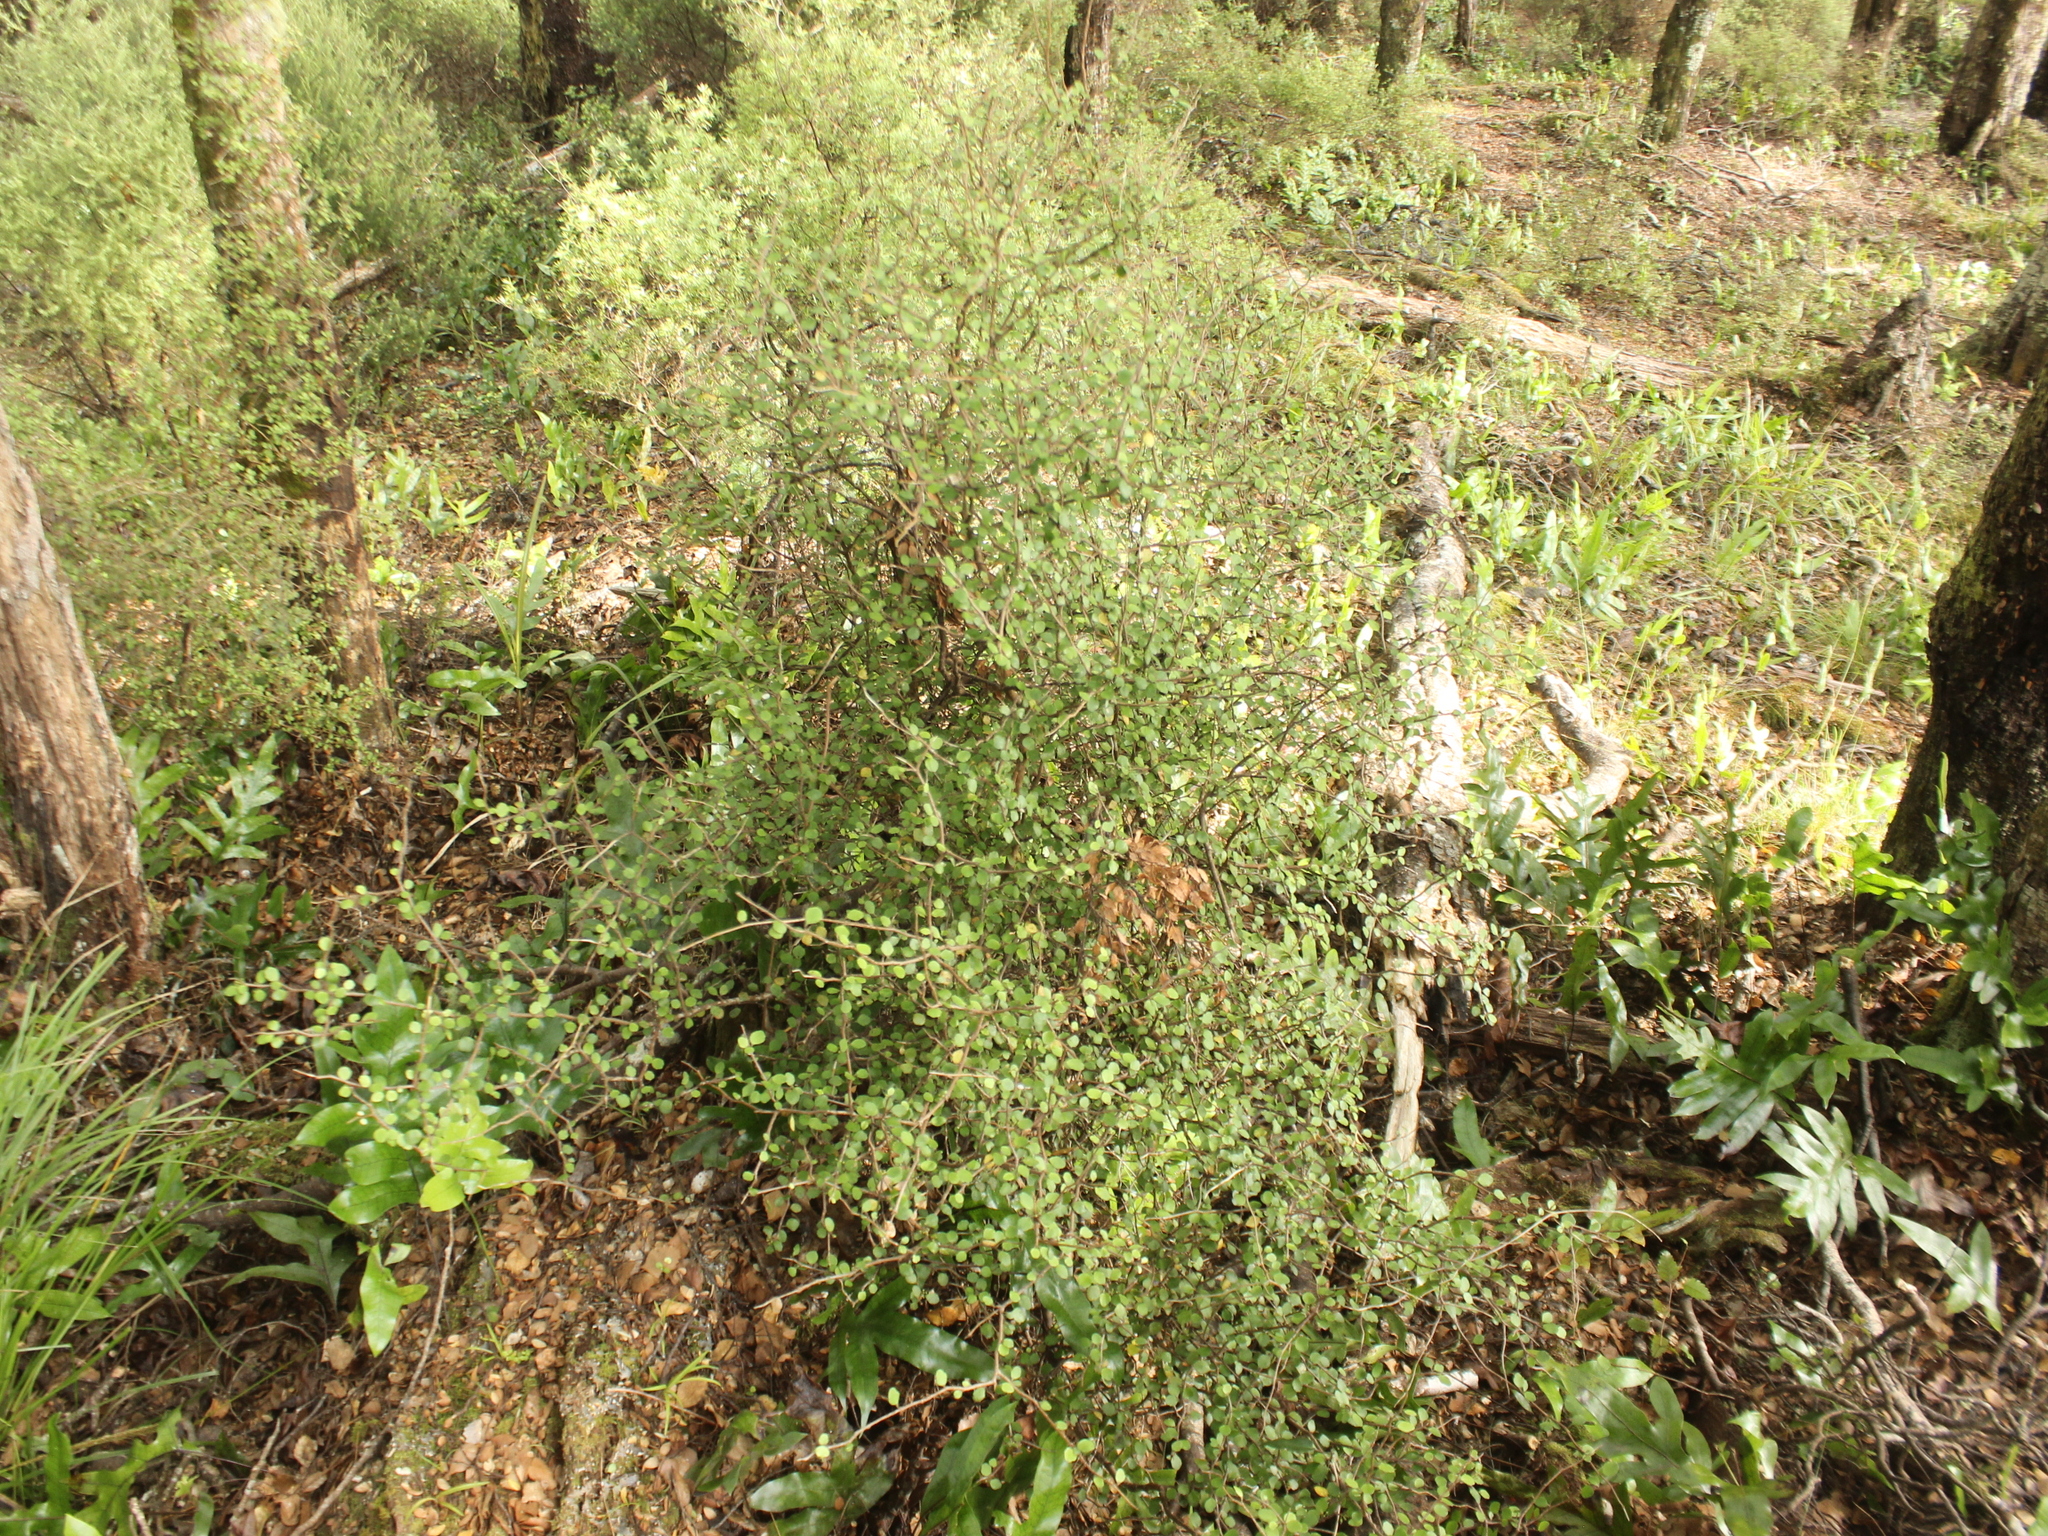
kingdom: Plantae
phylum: Tracheophyta
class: Magnoliopsida
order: Apiales
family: Araliaceae
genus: Raukaua
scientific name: Raukaua anomalus
